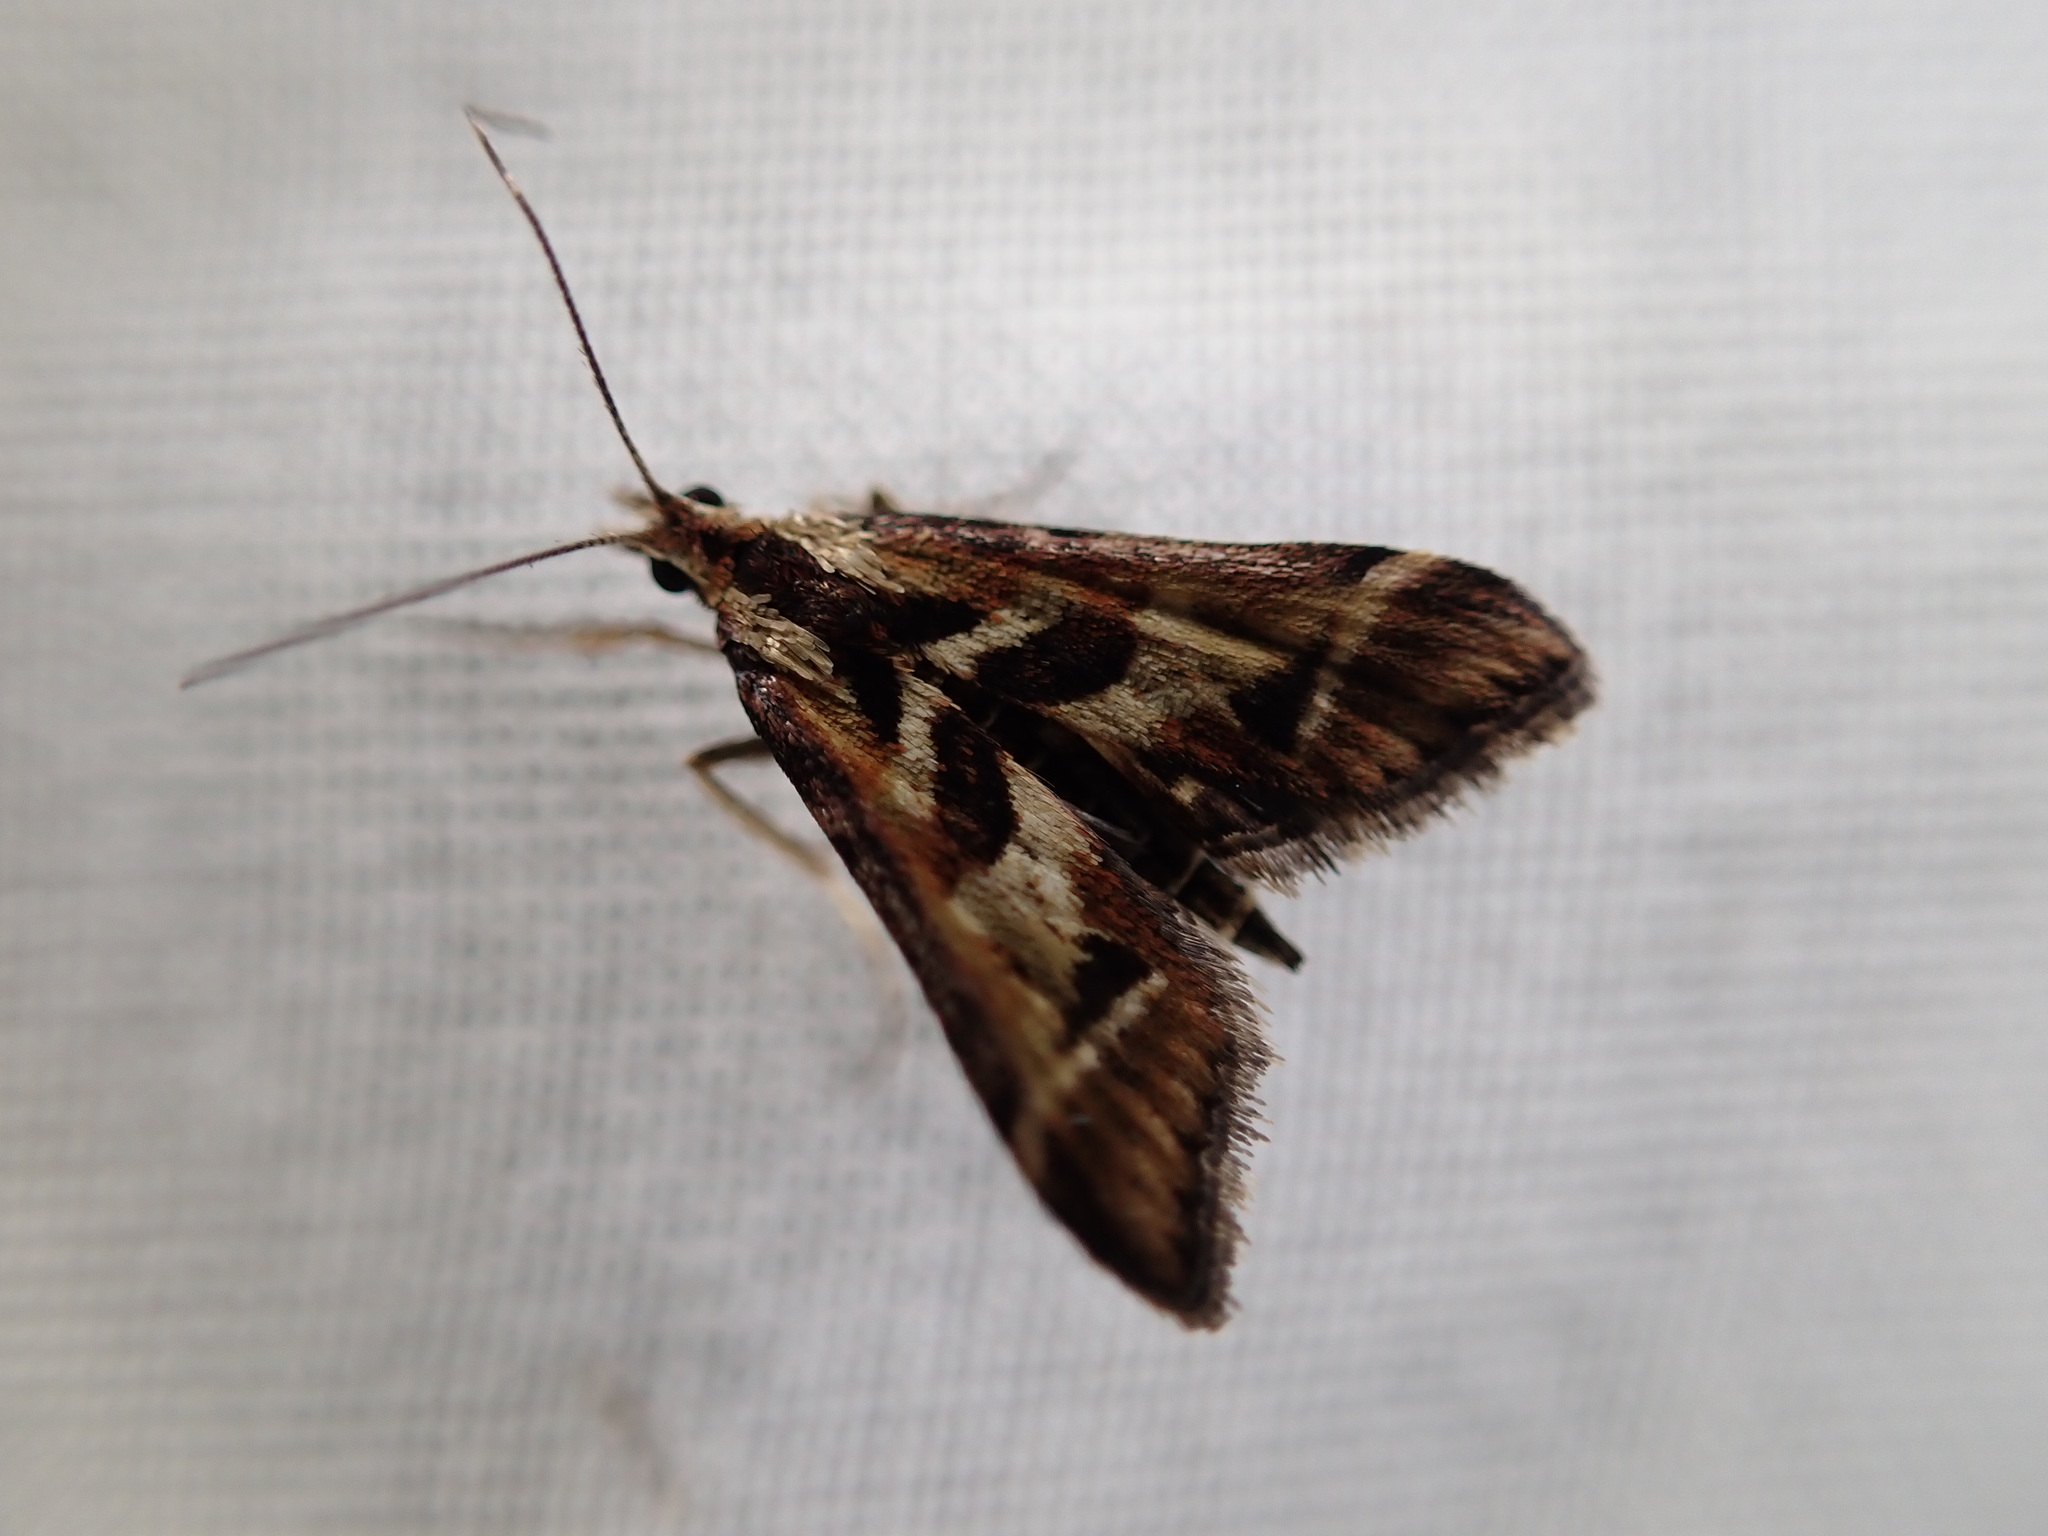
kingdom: Animalia
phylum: Arthropoda
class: Insecta
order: Lepidoptera
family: Crambidae
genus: Diasemia
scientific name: Diasemia grammalis
